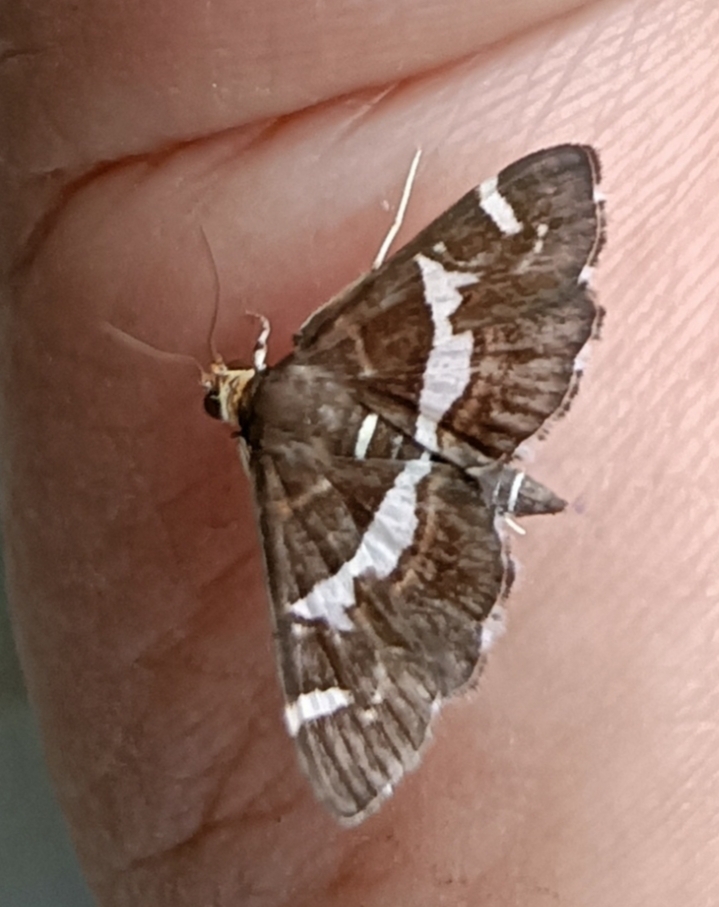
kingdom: Animalia
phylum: Arthropoda
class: Insecta
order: Lepidoptera
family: Crambidae
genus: Spoladea
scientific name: Spoladea recurvalis
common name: Beet webworm moth
